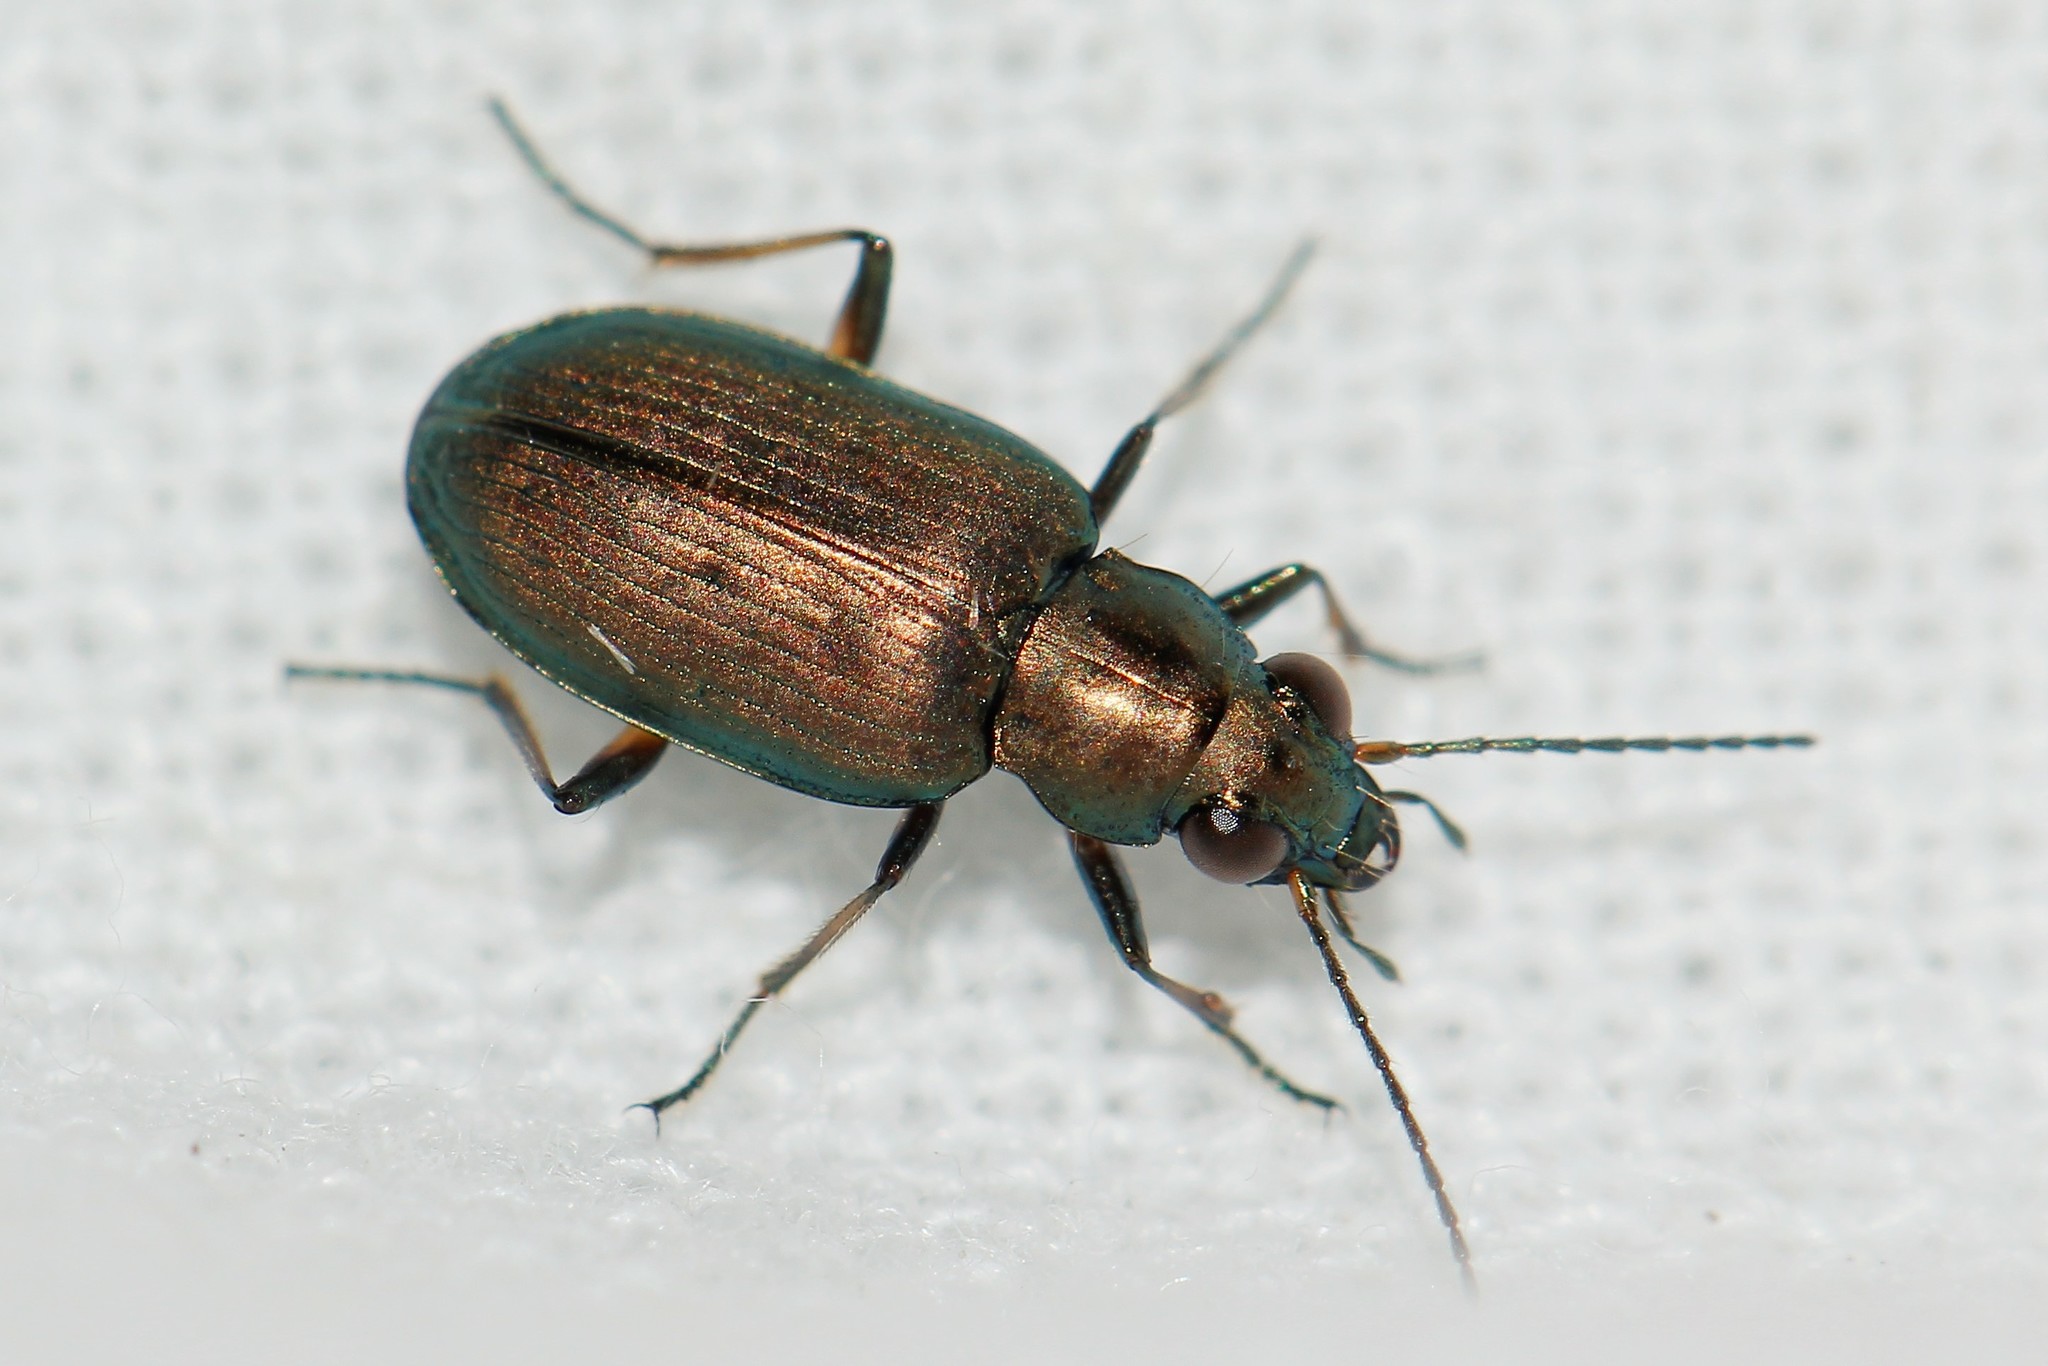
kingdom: Animalia
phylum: Arthropoda
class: Insecta
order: Coleoptera
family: Carabidae
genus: Bembidion
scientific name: Bembidion striatum
